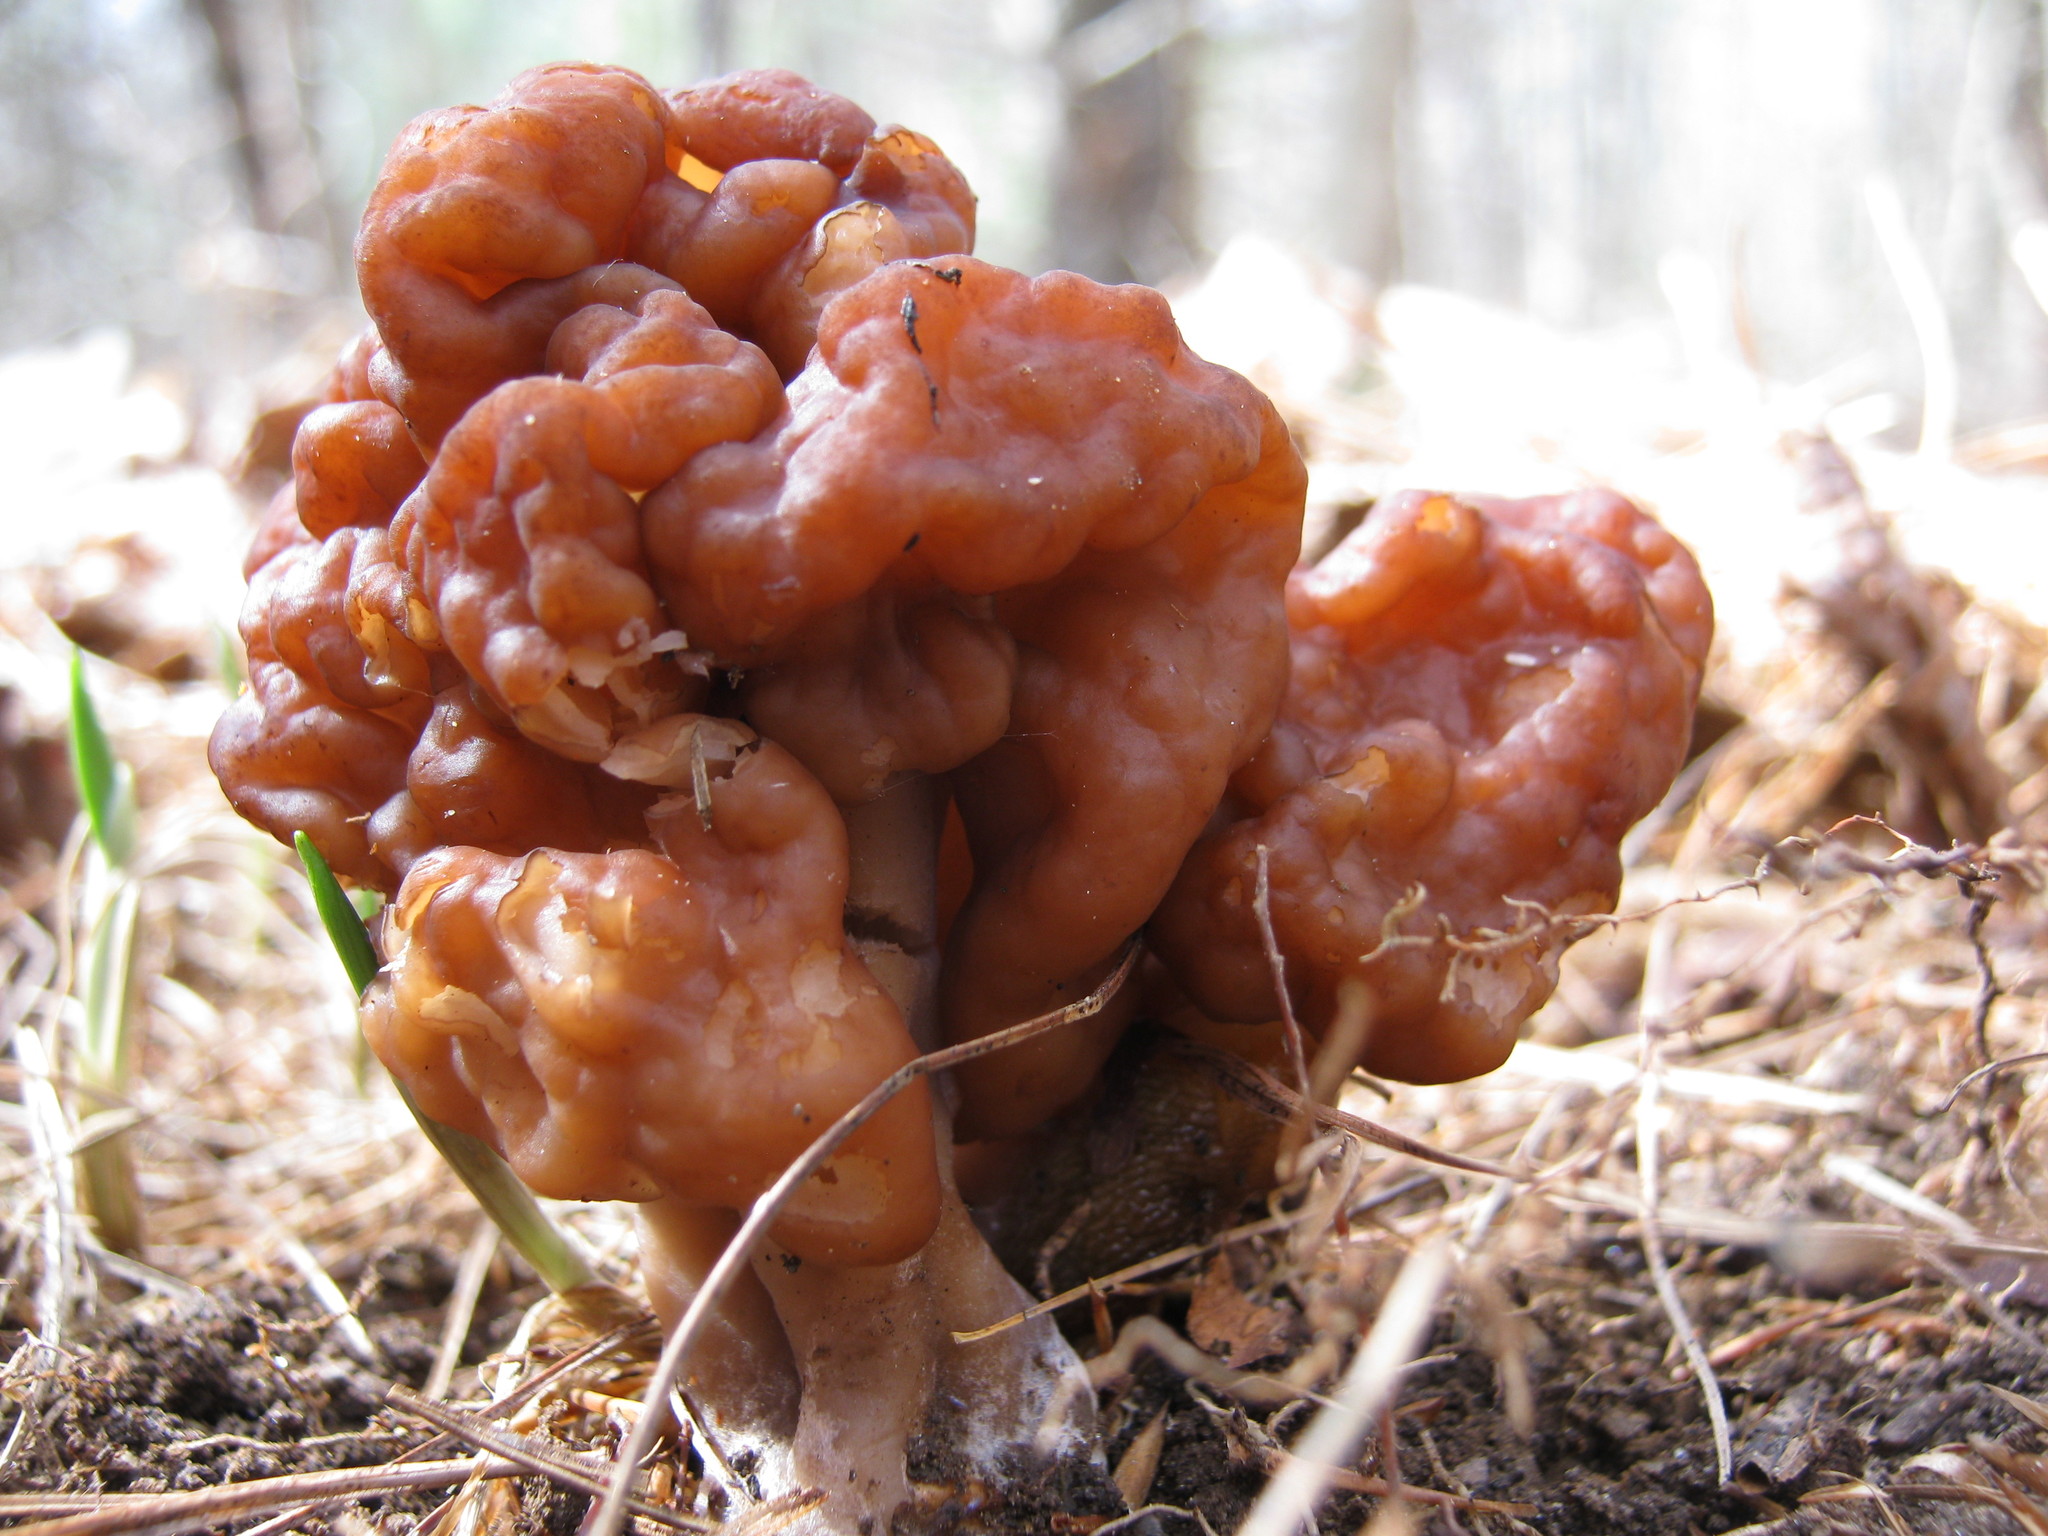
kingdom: Fungi
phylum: Ascomycota
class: Pezizomycetes
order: Pezizales
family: Discinaceae
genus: Gyromitra
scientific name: Gyromitra esculenta
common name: False morel
